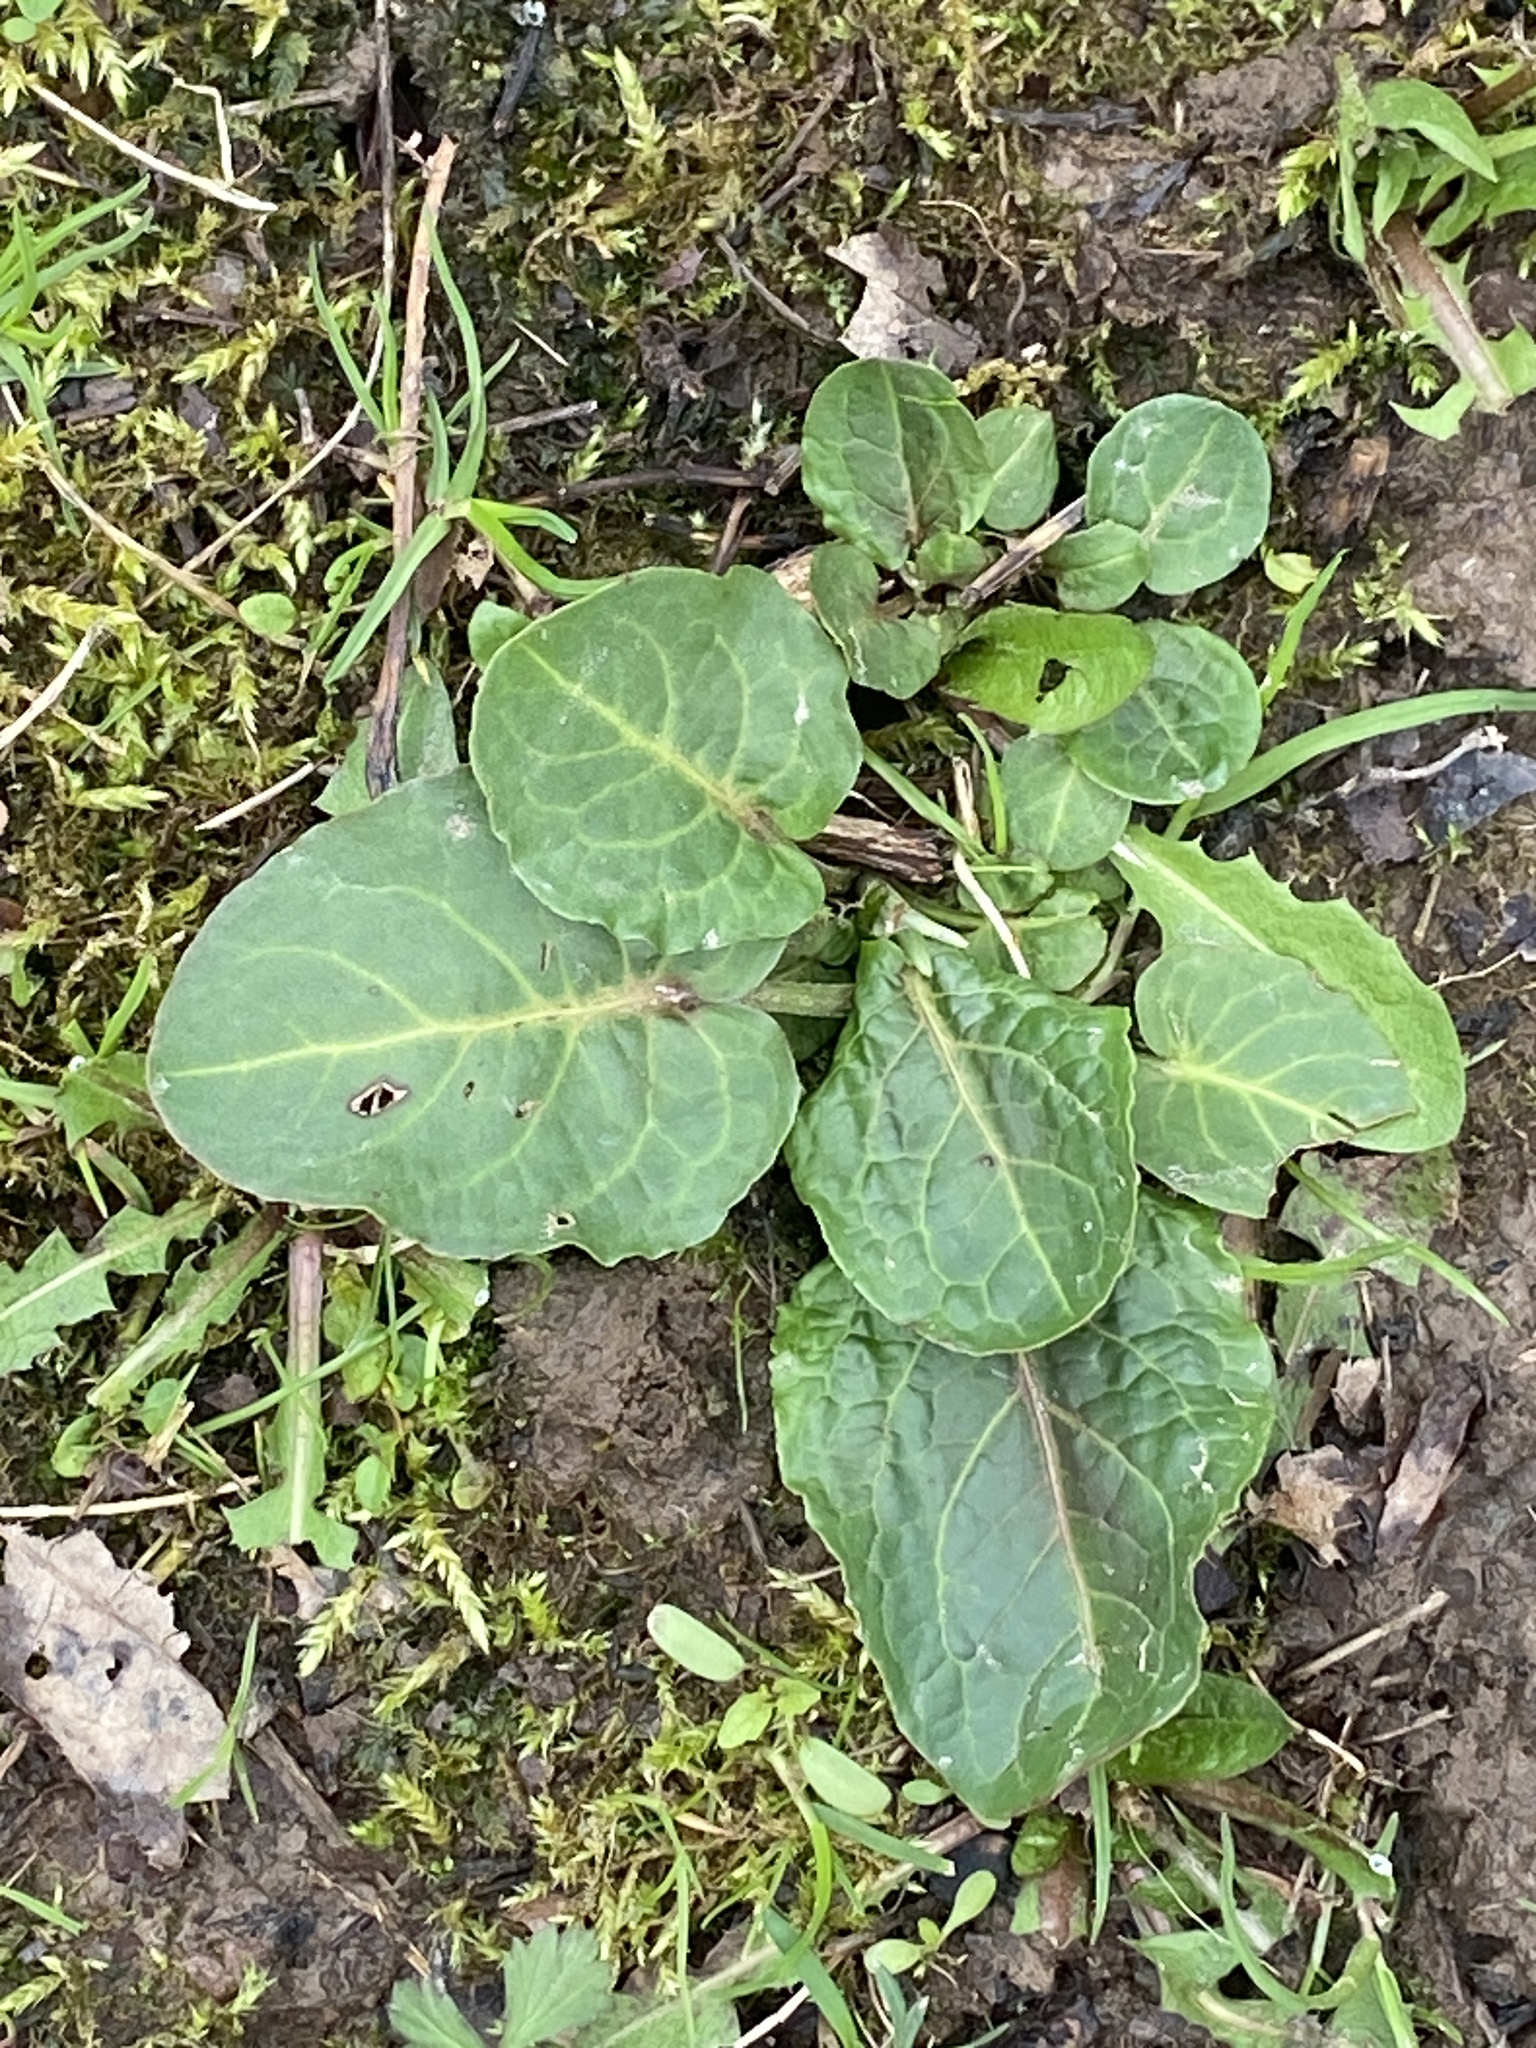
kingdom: Plantae
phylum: Tracheophyta
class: Magnoliopsida
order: Caryophyllales
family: Polygonaceae
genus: Rumex
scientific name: Rumex obtusifolius
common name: Bitter dock
